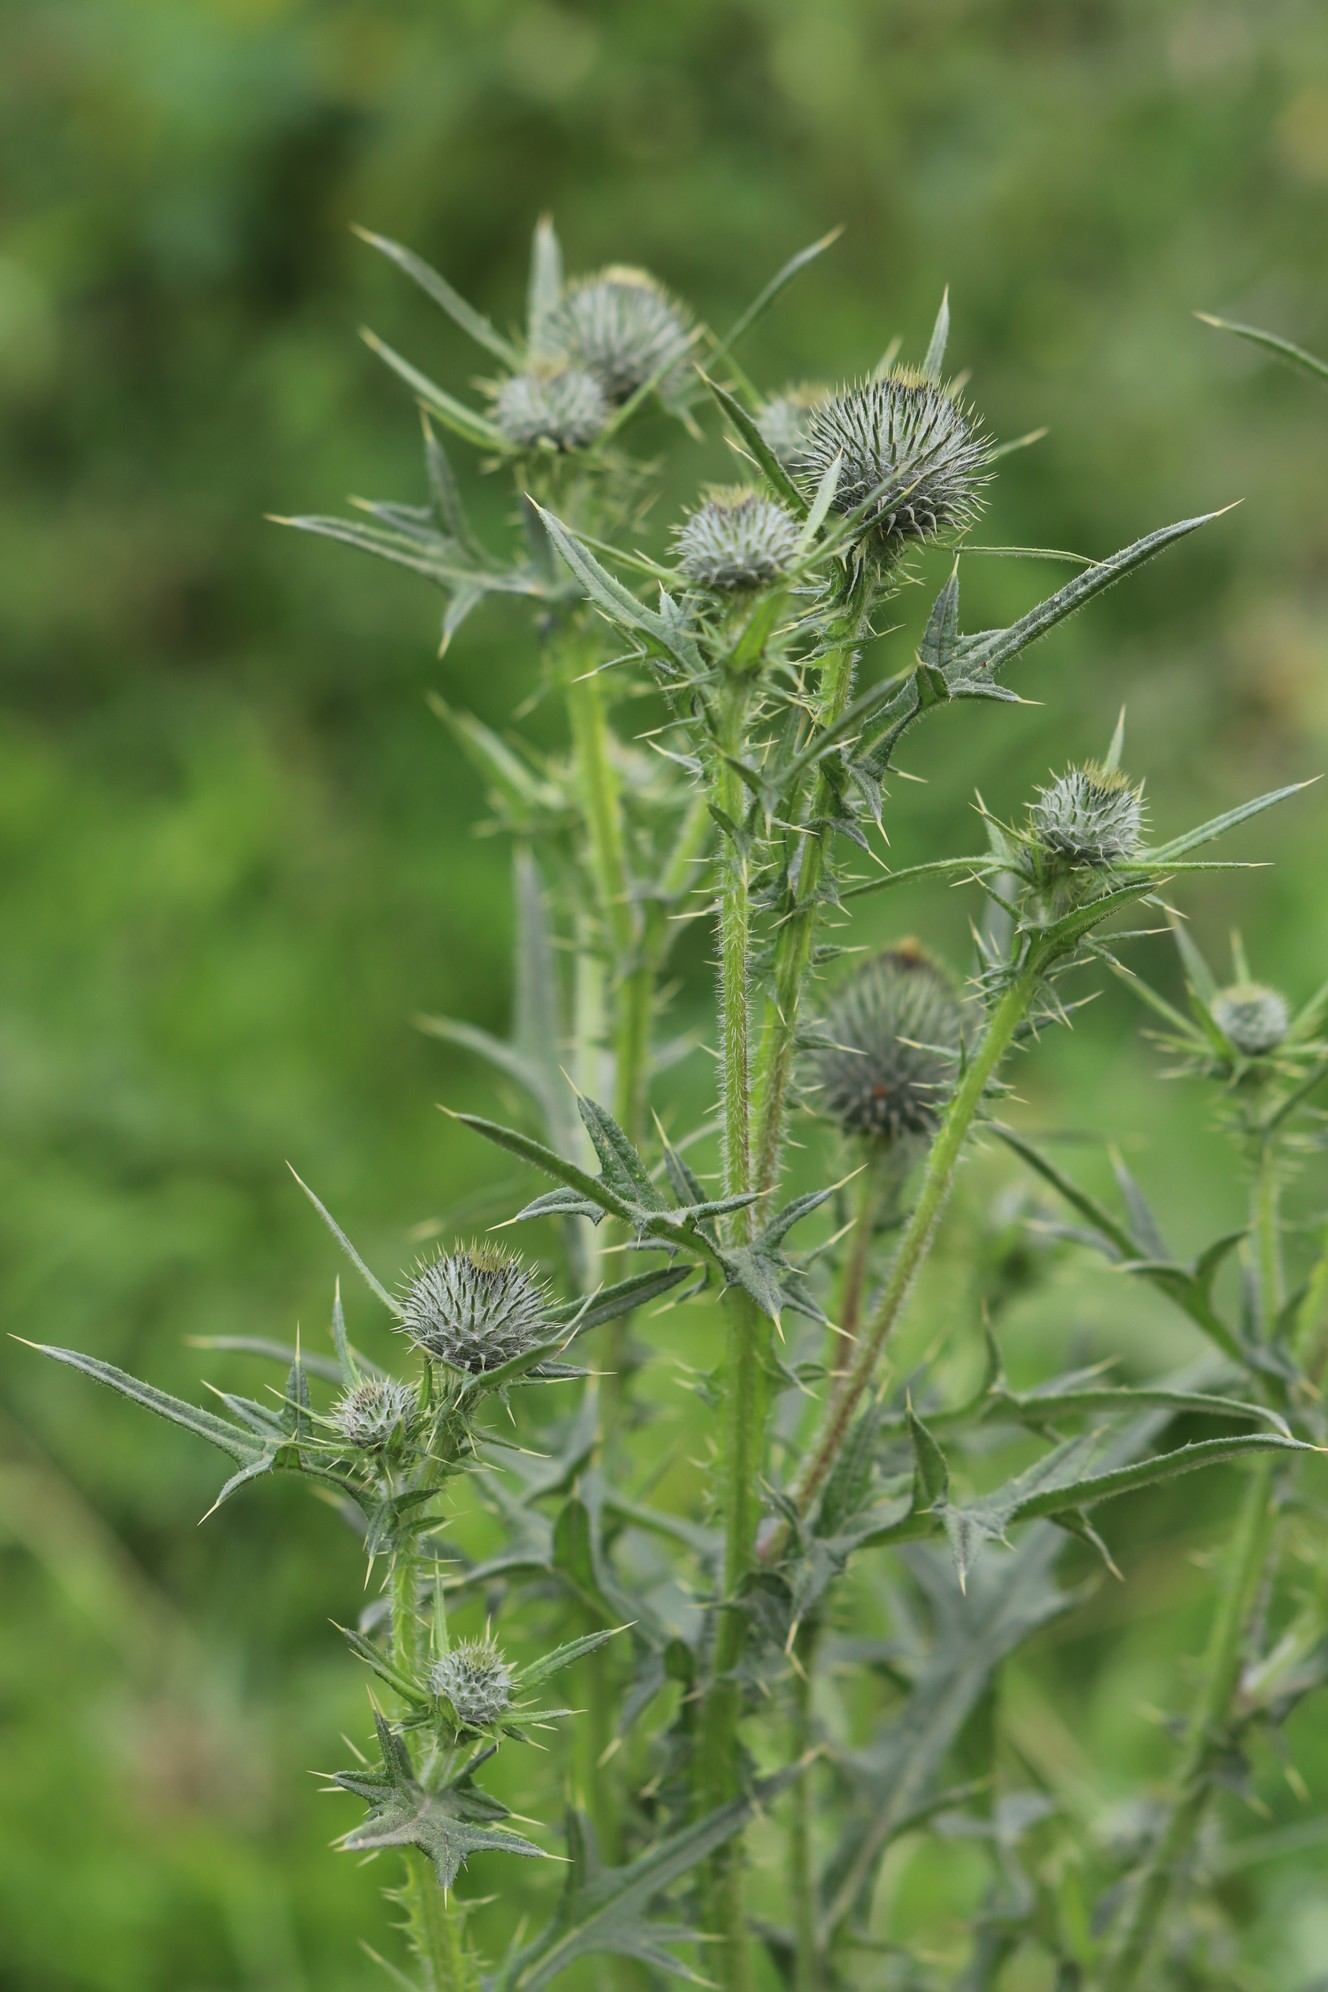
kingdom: Plantae
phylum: Tracheophyta
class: Magnoliopsida
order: Asterales
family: Asteraceae
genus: Cirsium
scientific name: Cirsium vulgare
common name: Bull thistle
